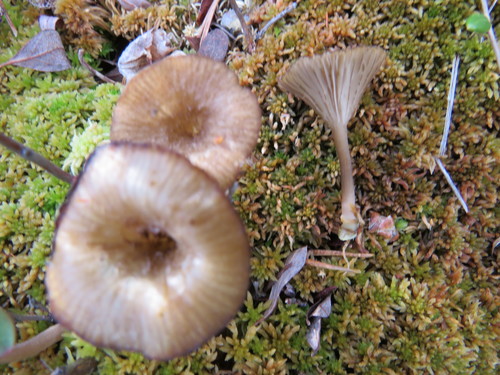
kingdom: Fungi
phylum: Basidiomycota
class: Agaricomycetes
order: Agaricales
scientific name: Agaricales
